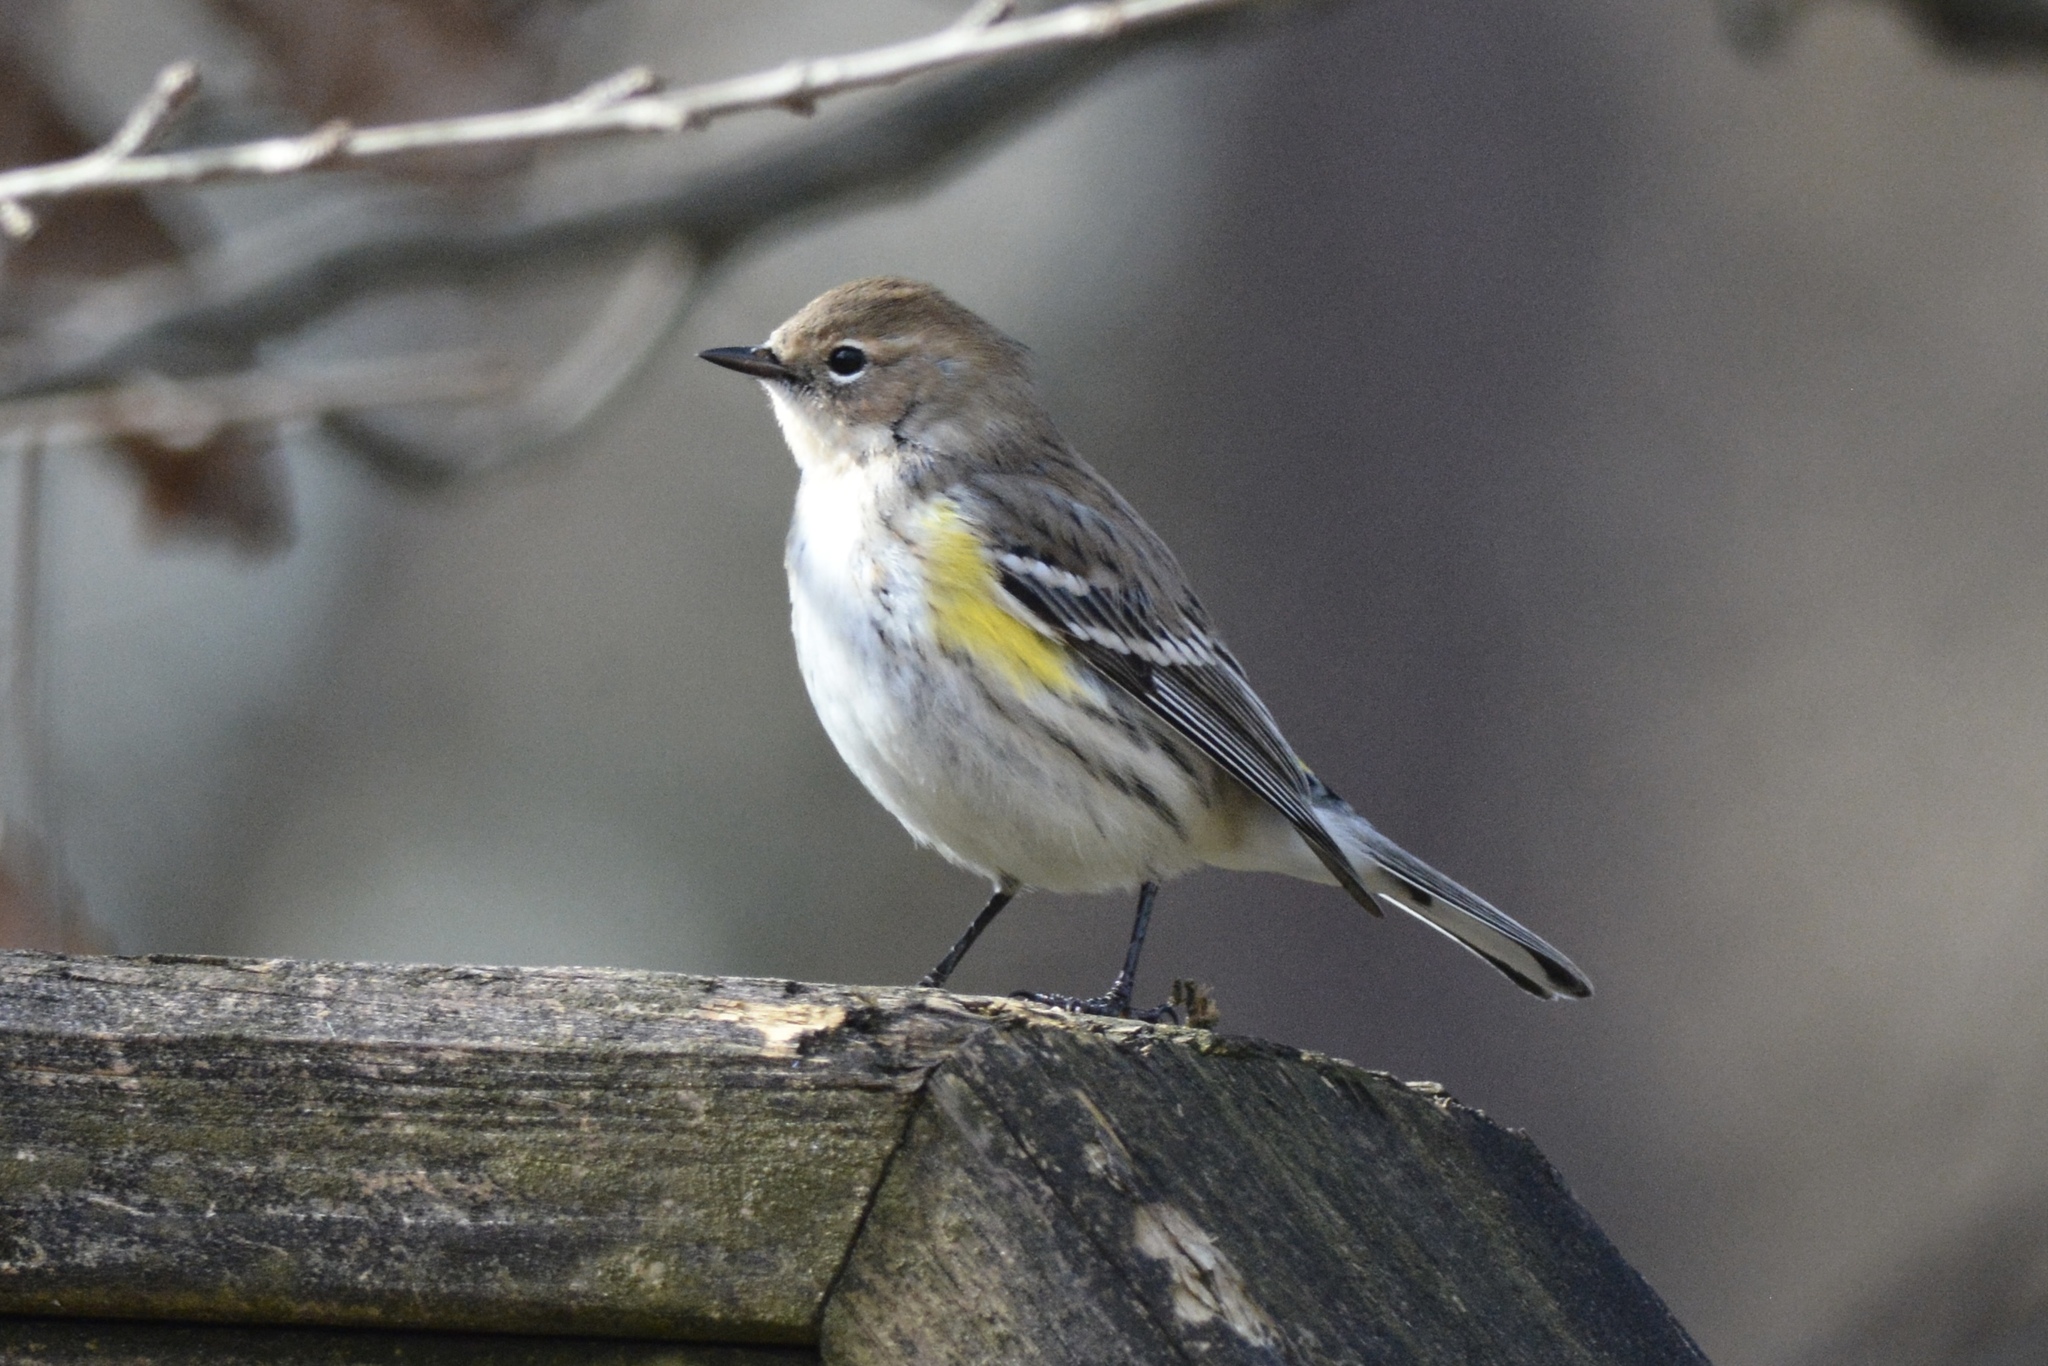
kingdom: Animalia
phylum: Chordata
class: Aves
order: Passeriformes
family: Parulidae
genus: Setophaga
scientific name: Setophaga coronata
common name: Myrtle warbler
